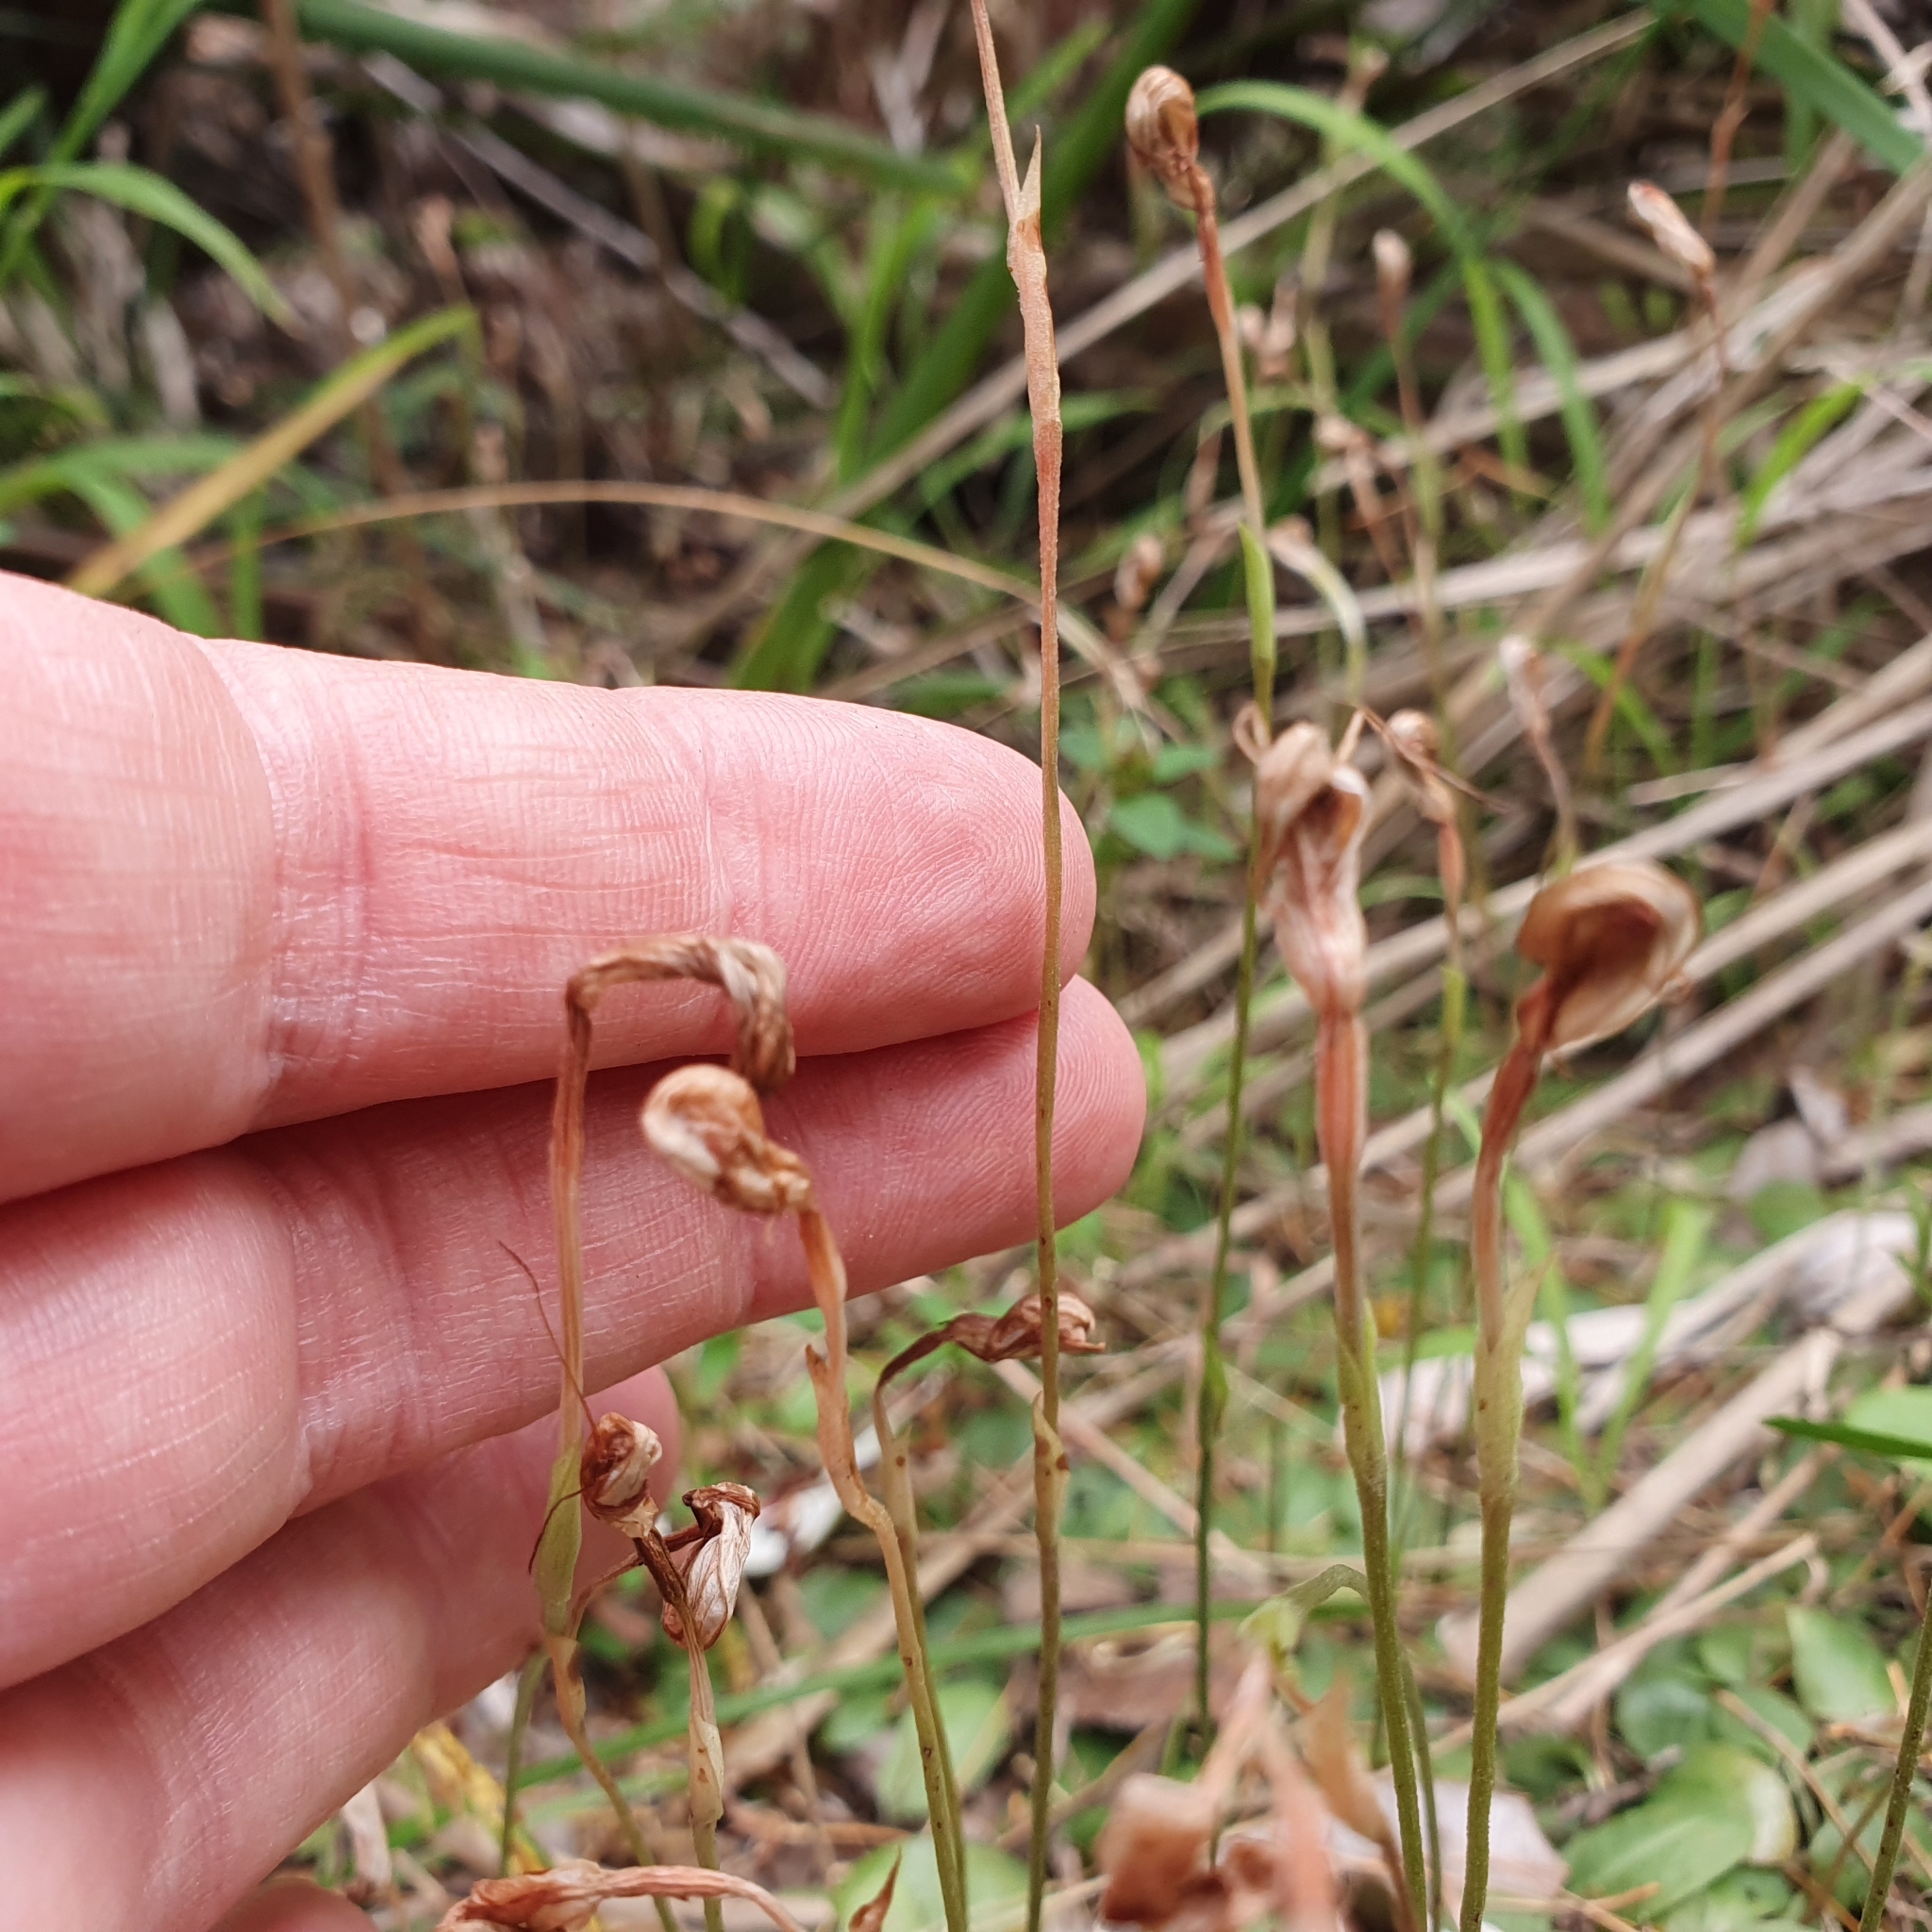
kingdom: Plantae
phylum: Tracheophyta
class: Liliopsida
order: Asparagales
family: Orchidaceae
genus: Pterostylis
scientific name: Pterostylis concinna
